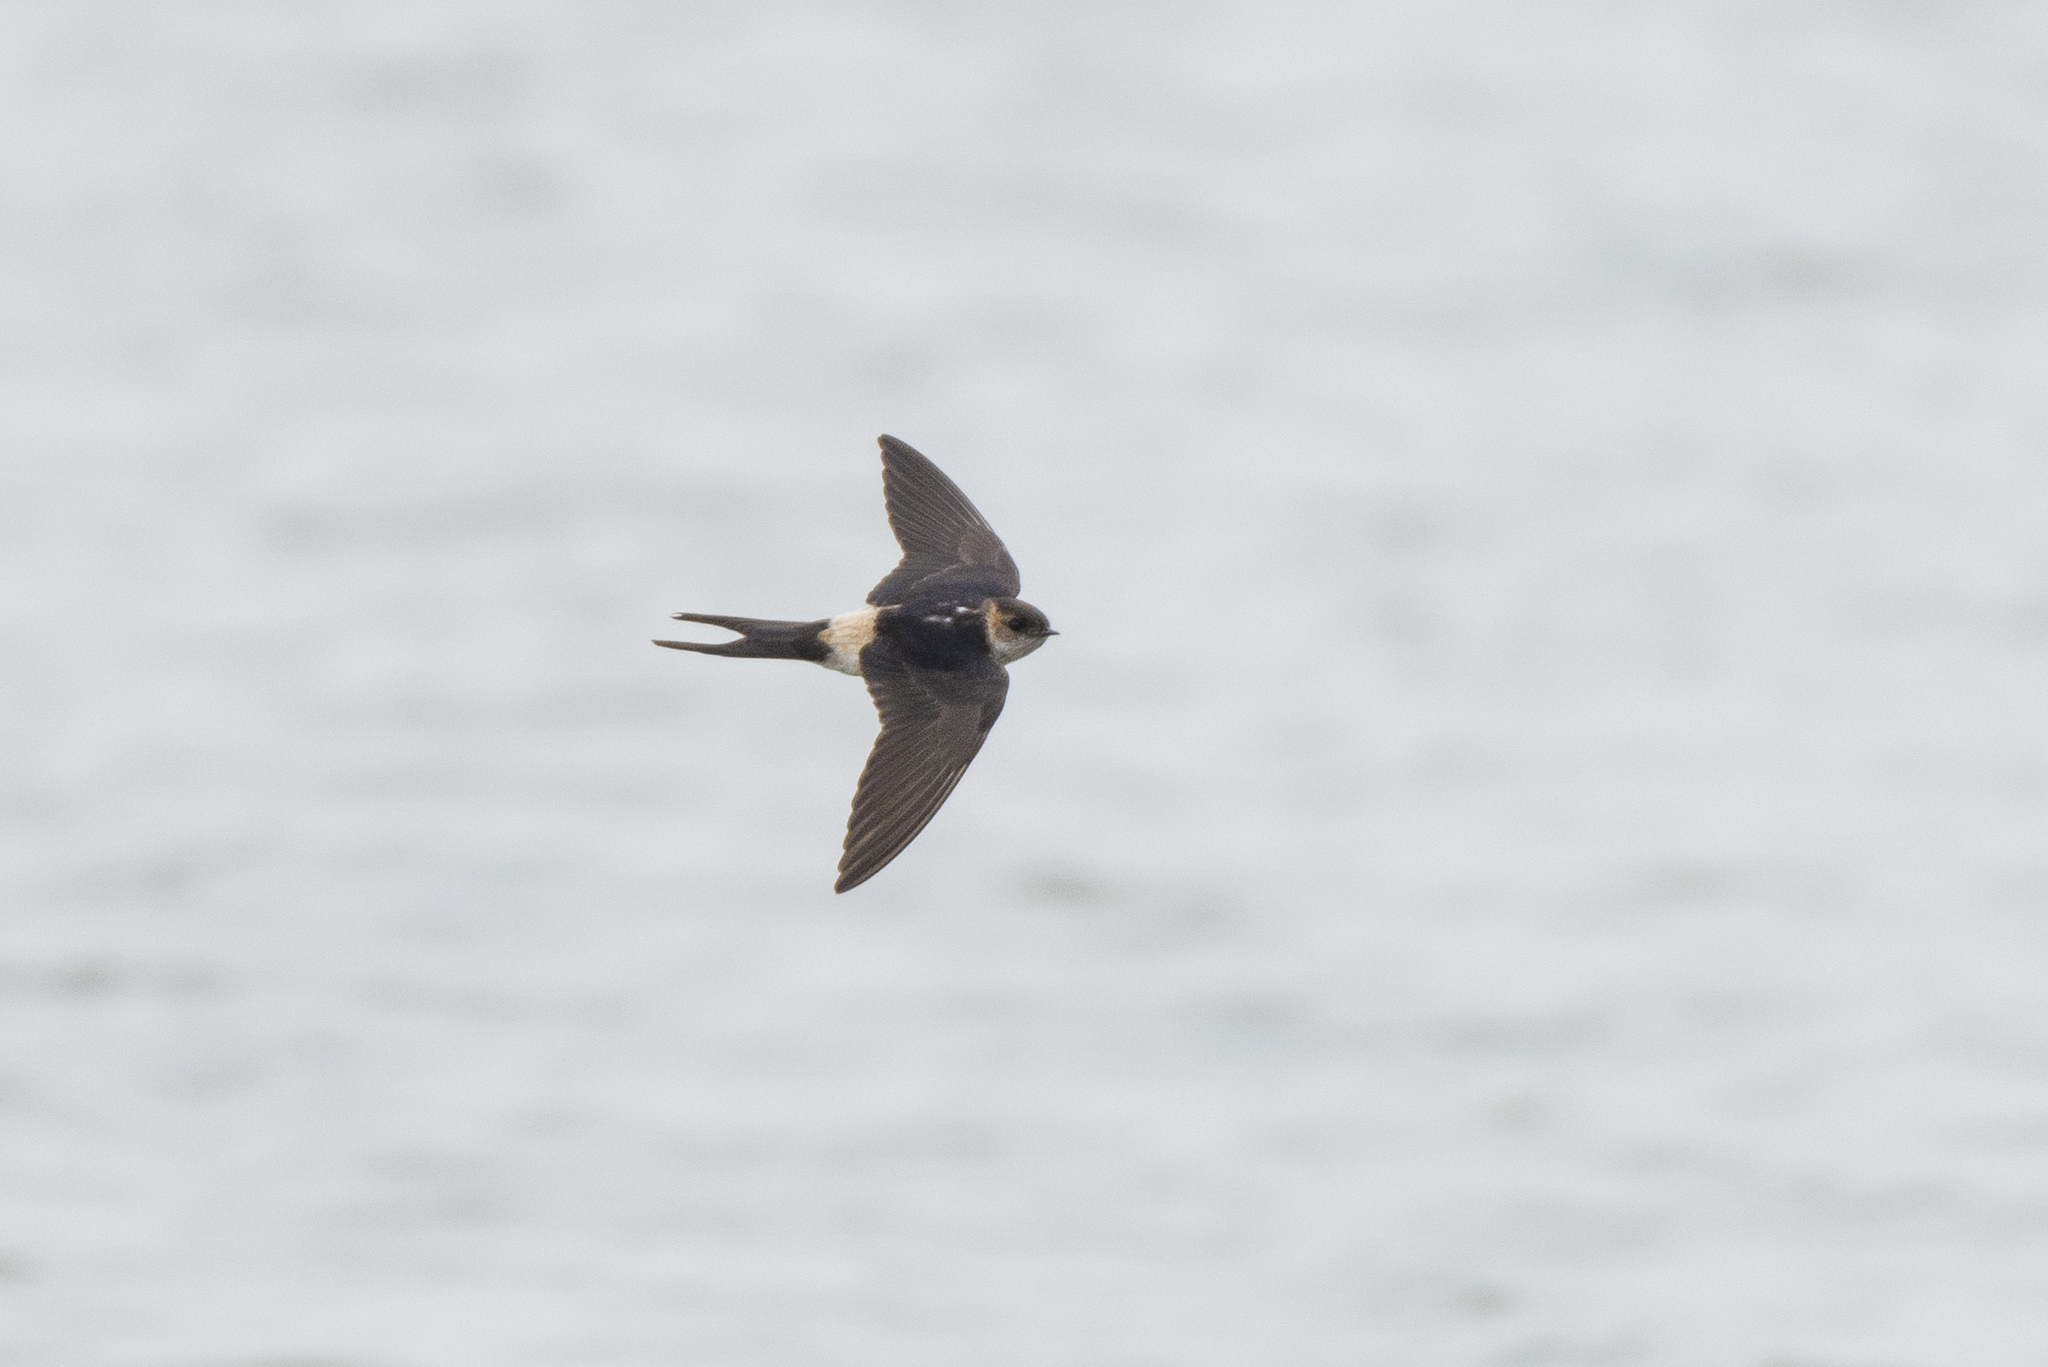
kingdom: Animalia
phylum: Chordata
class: Aves
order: Passeriformes
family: Hirundinidae
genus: Cecropis
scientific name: Cecropis daurica
